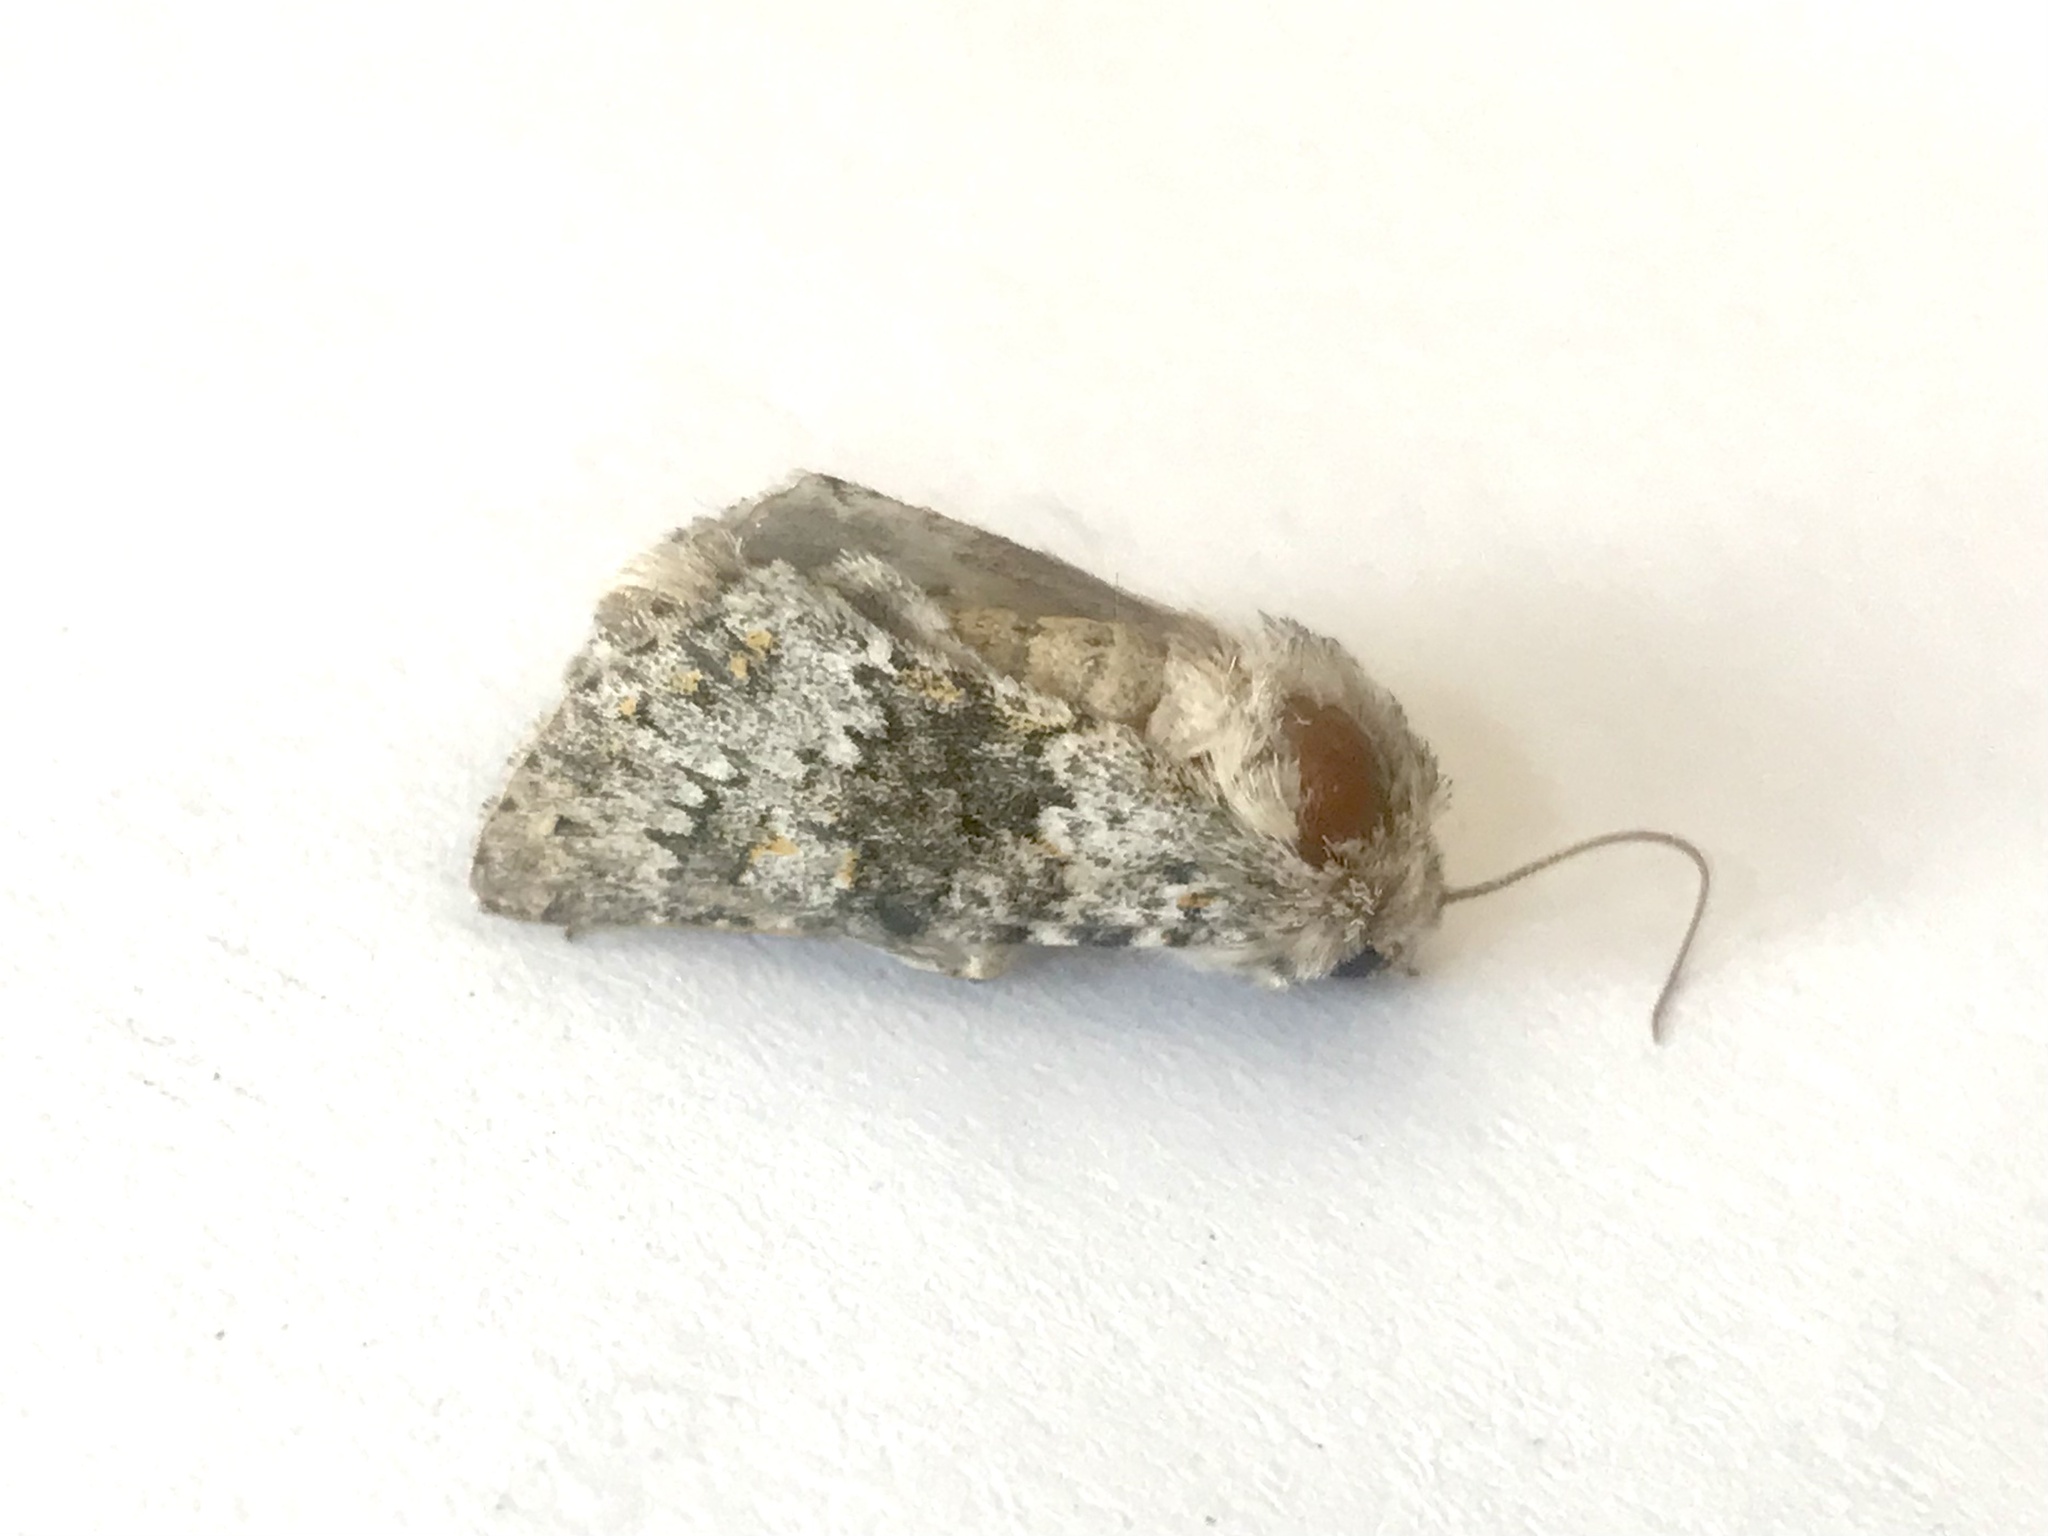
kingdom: Animalia
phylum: Arthropoda
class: Insecta
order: Lepidoptera
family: Noctuidae
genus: Hecatera
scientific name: Hecatera dysodea
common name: Small ranunculus
